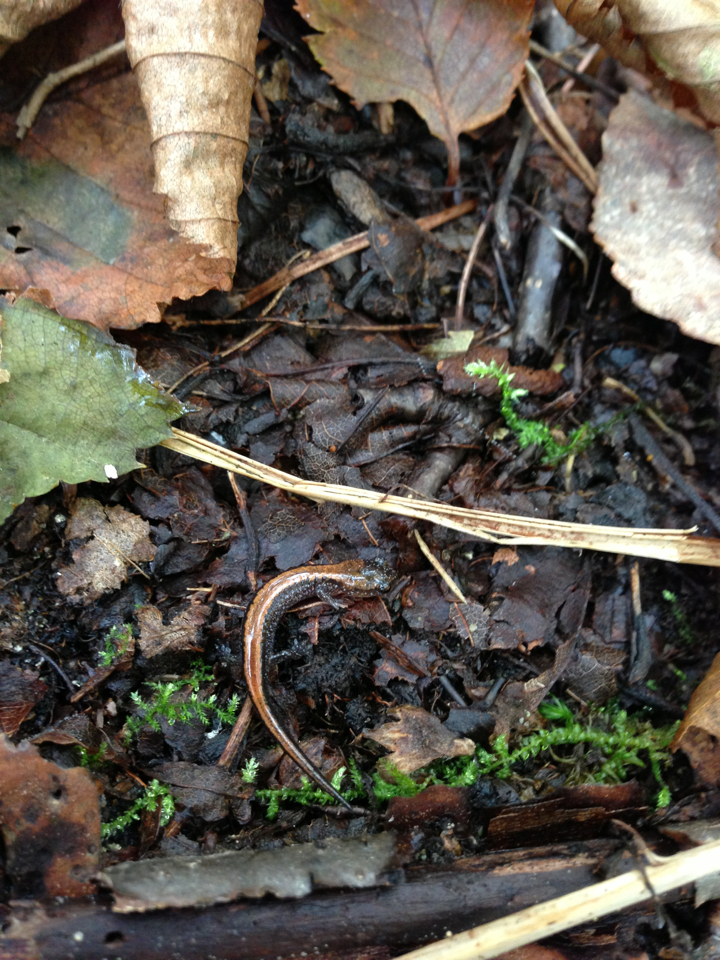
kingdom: Animalia
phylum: Chordata
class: Amphibia
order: Caudata
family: Plethodontidae
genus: Plethodon
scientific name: Plethodon cinereus
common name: Redback salamander
